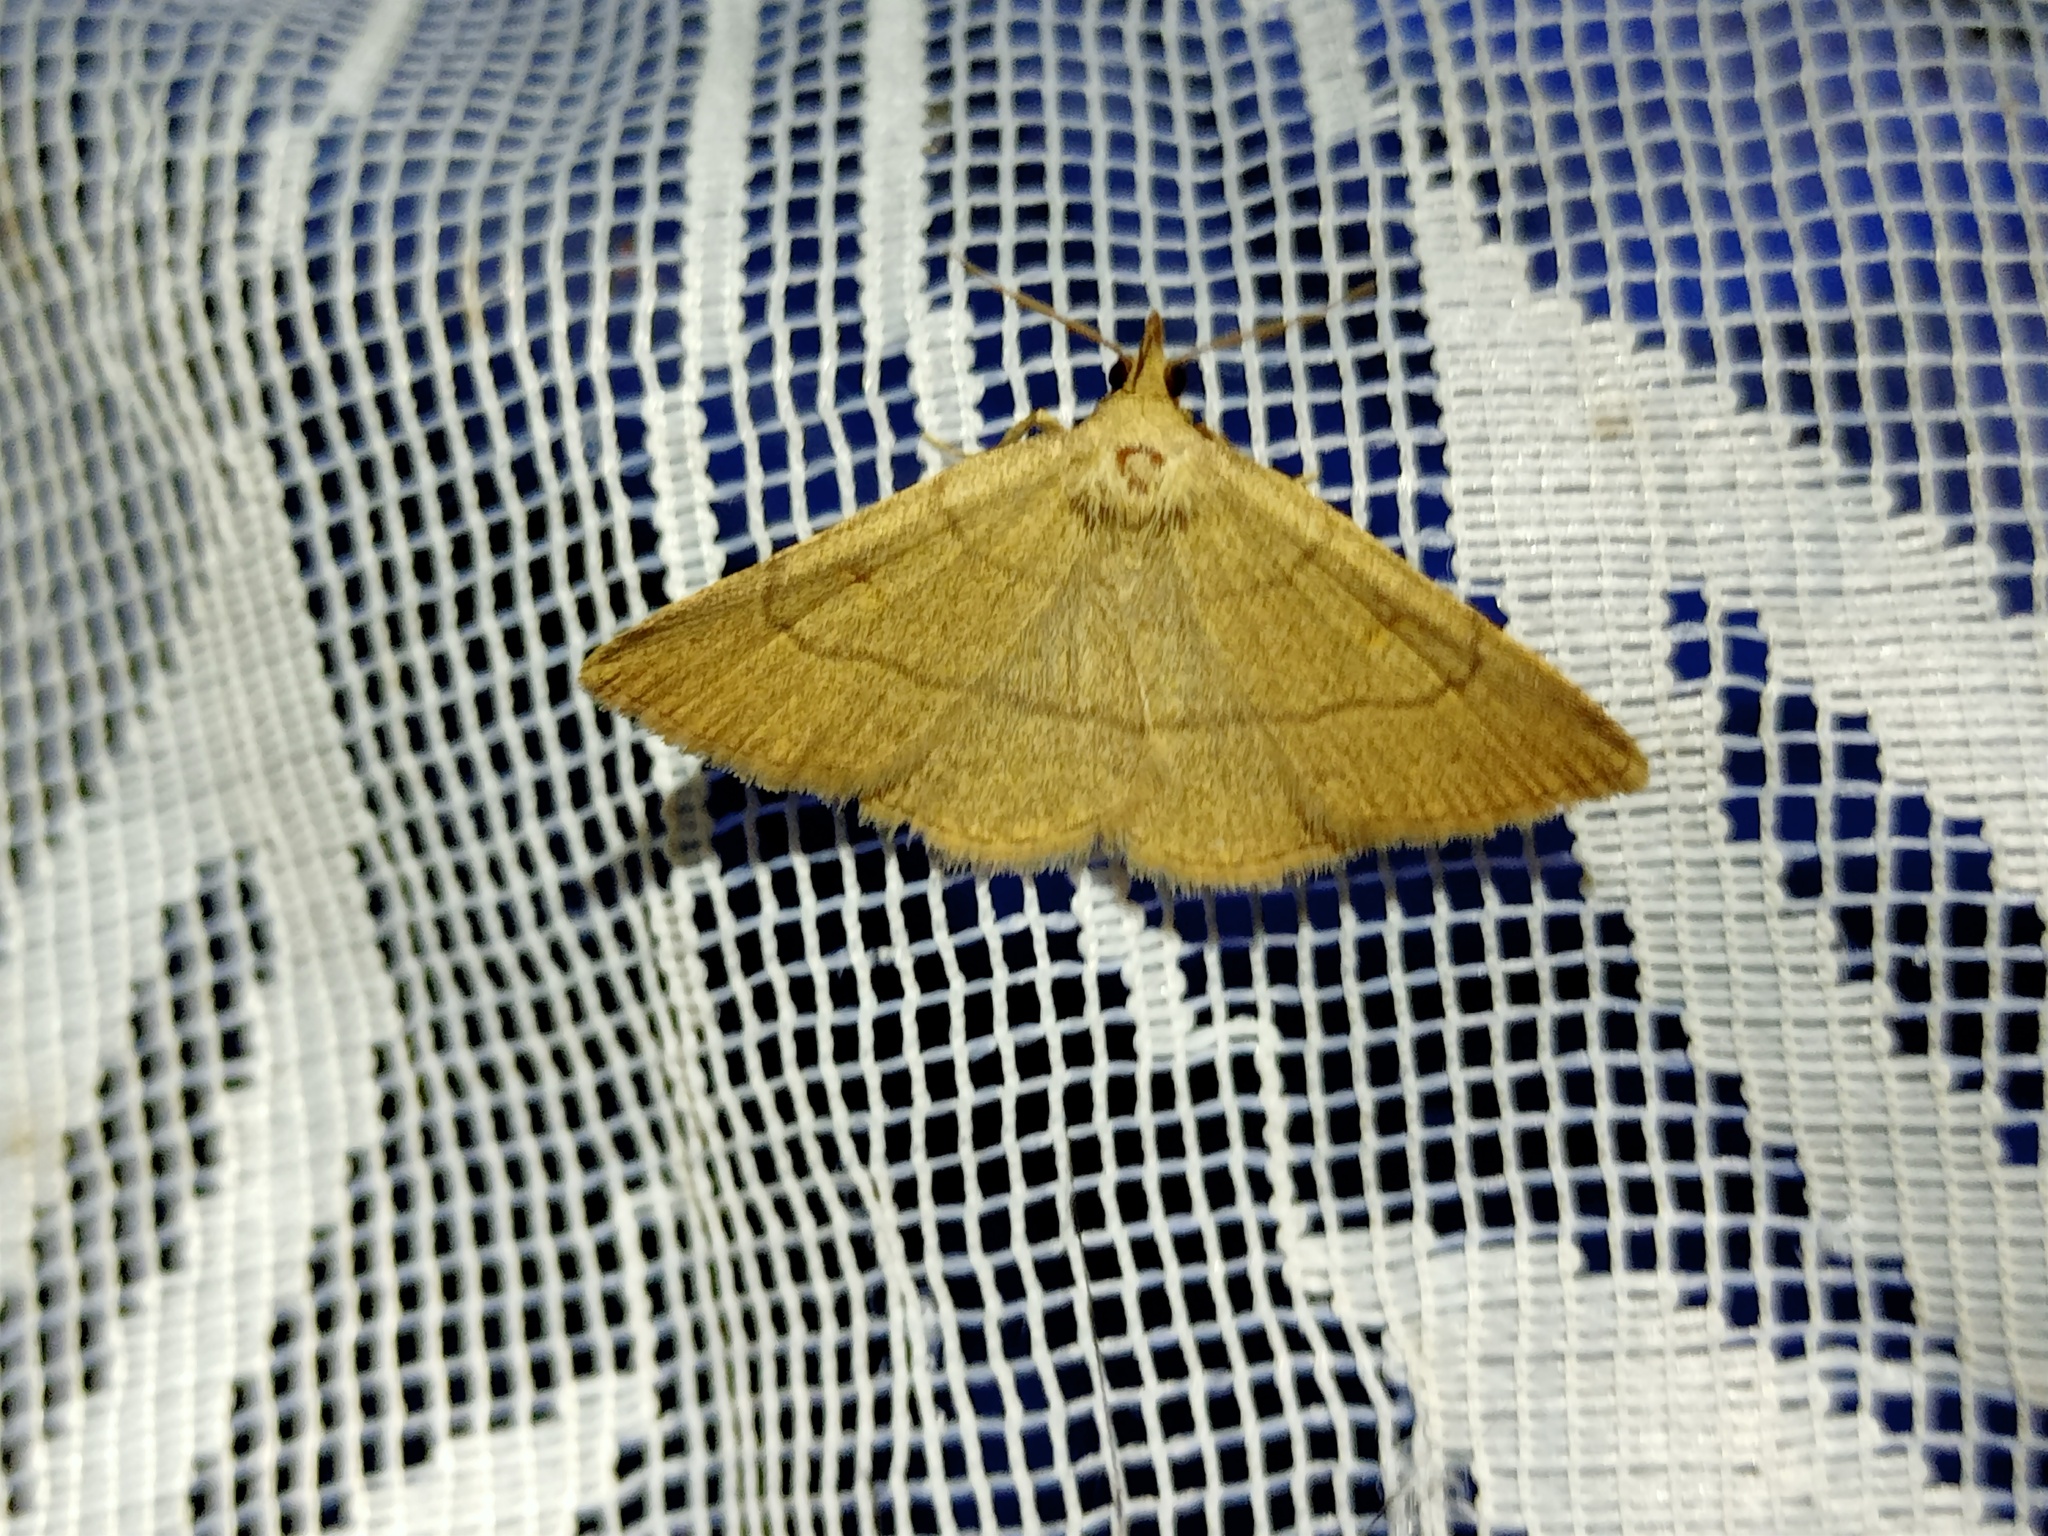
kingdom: Animalia
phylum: Arthropoda
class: Insecta
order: Lepidoptera
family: Erebidae
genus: Paracolax
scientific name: Paracolax tristalis
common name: Clay fan-foot
